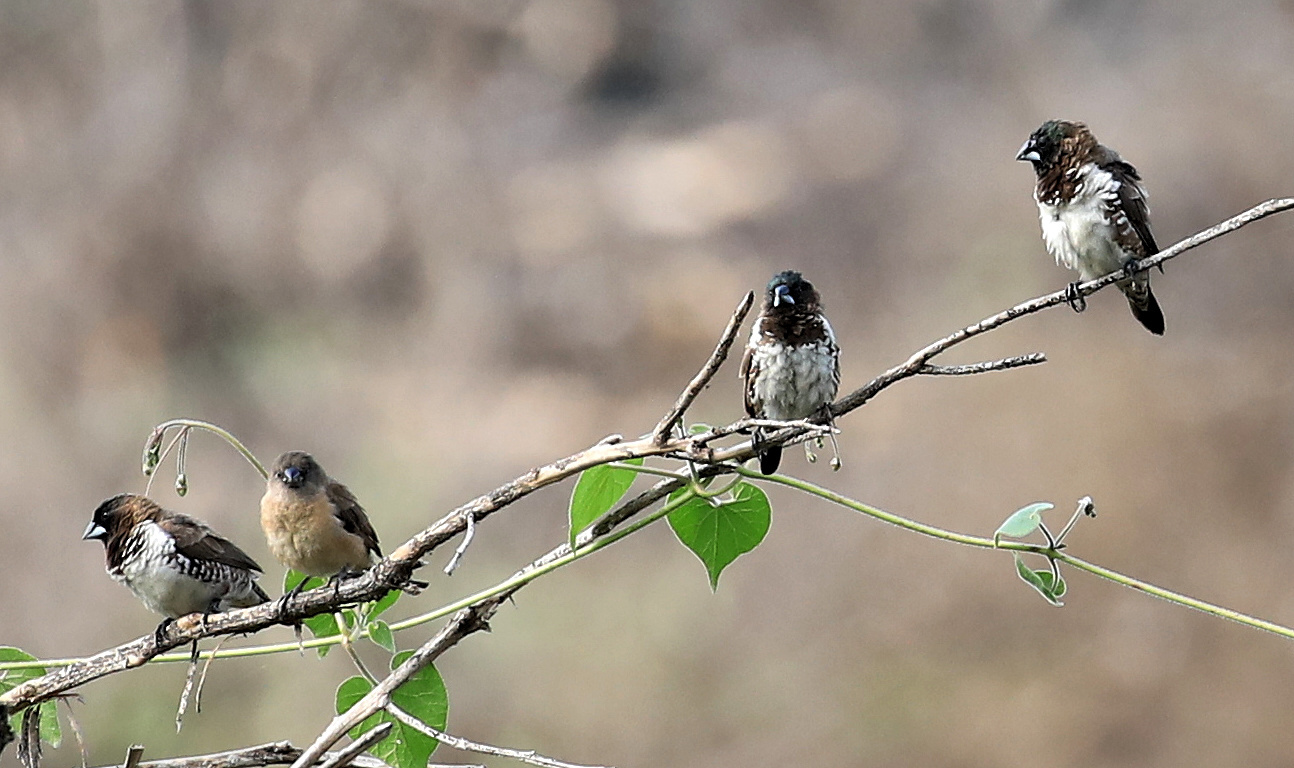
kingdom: Animalia
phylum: Chordata
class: Aves
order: Passeriformes
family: Estrildidae
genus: Lonchura
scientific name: Lonchura cucullata
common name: Bronze mannikin
